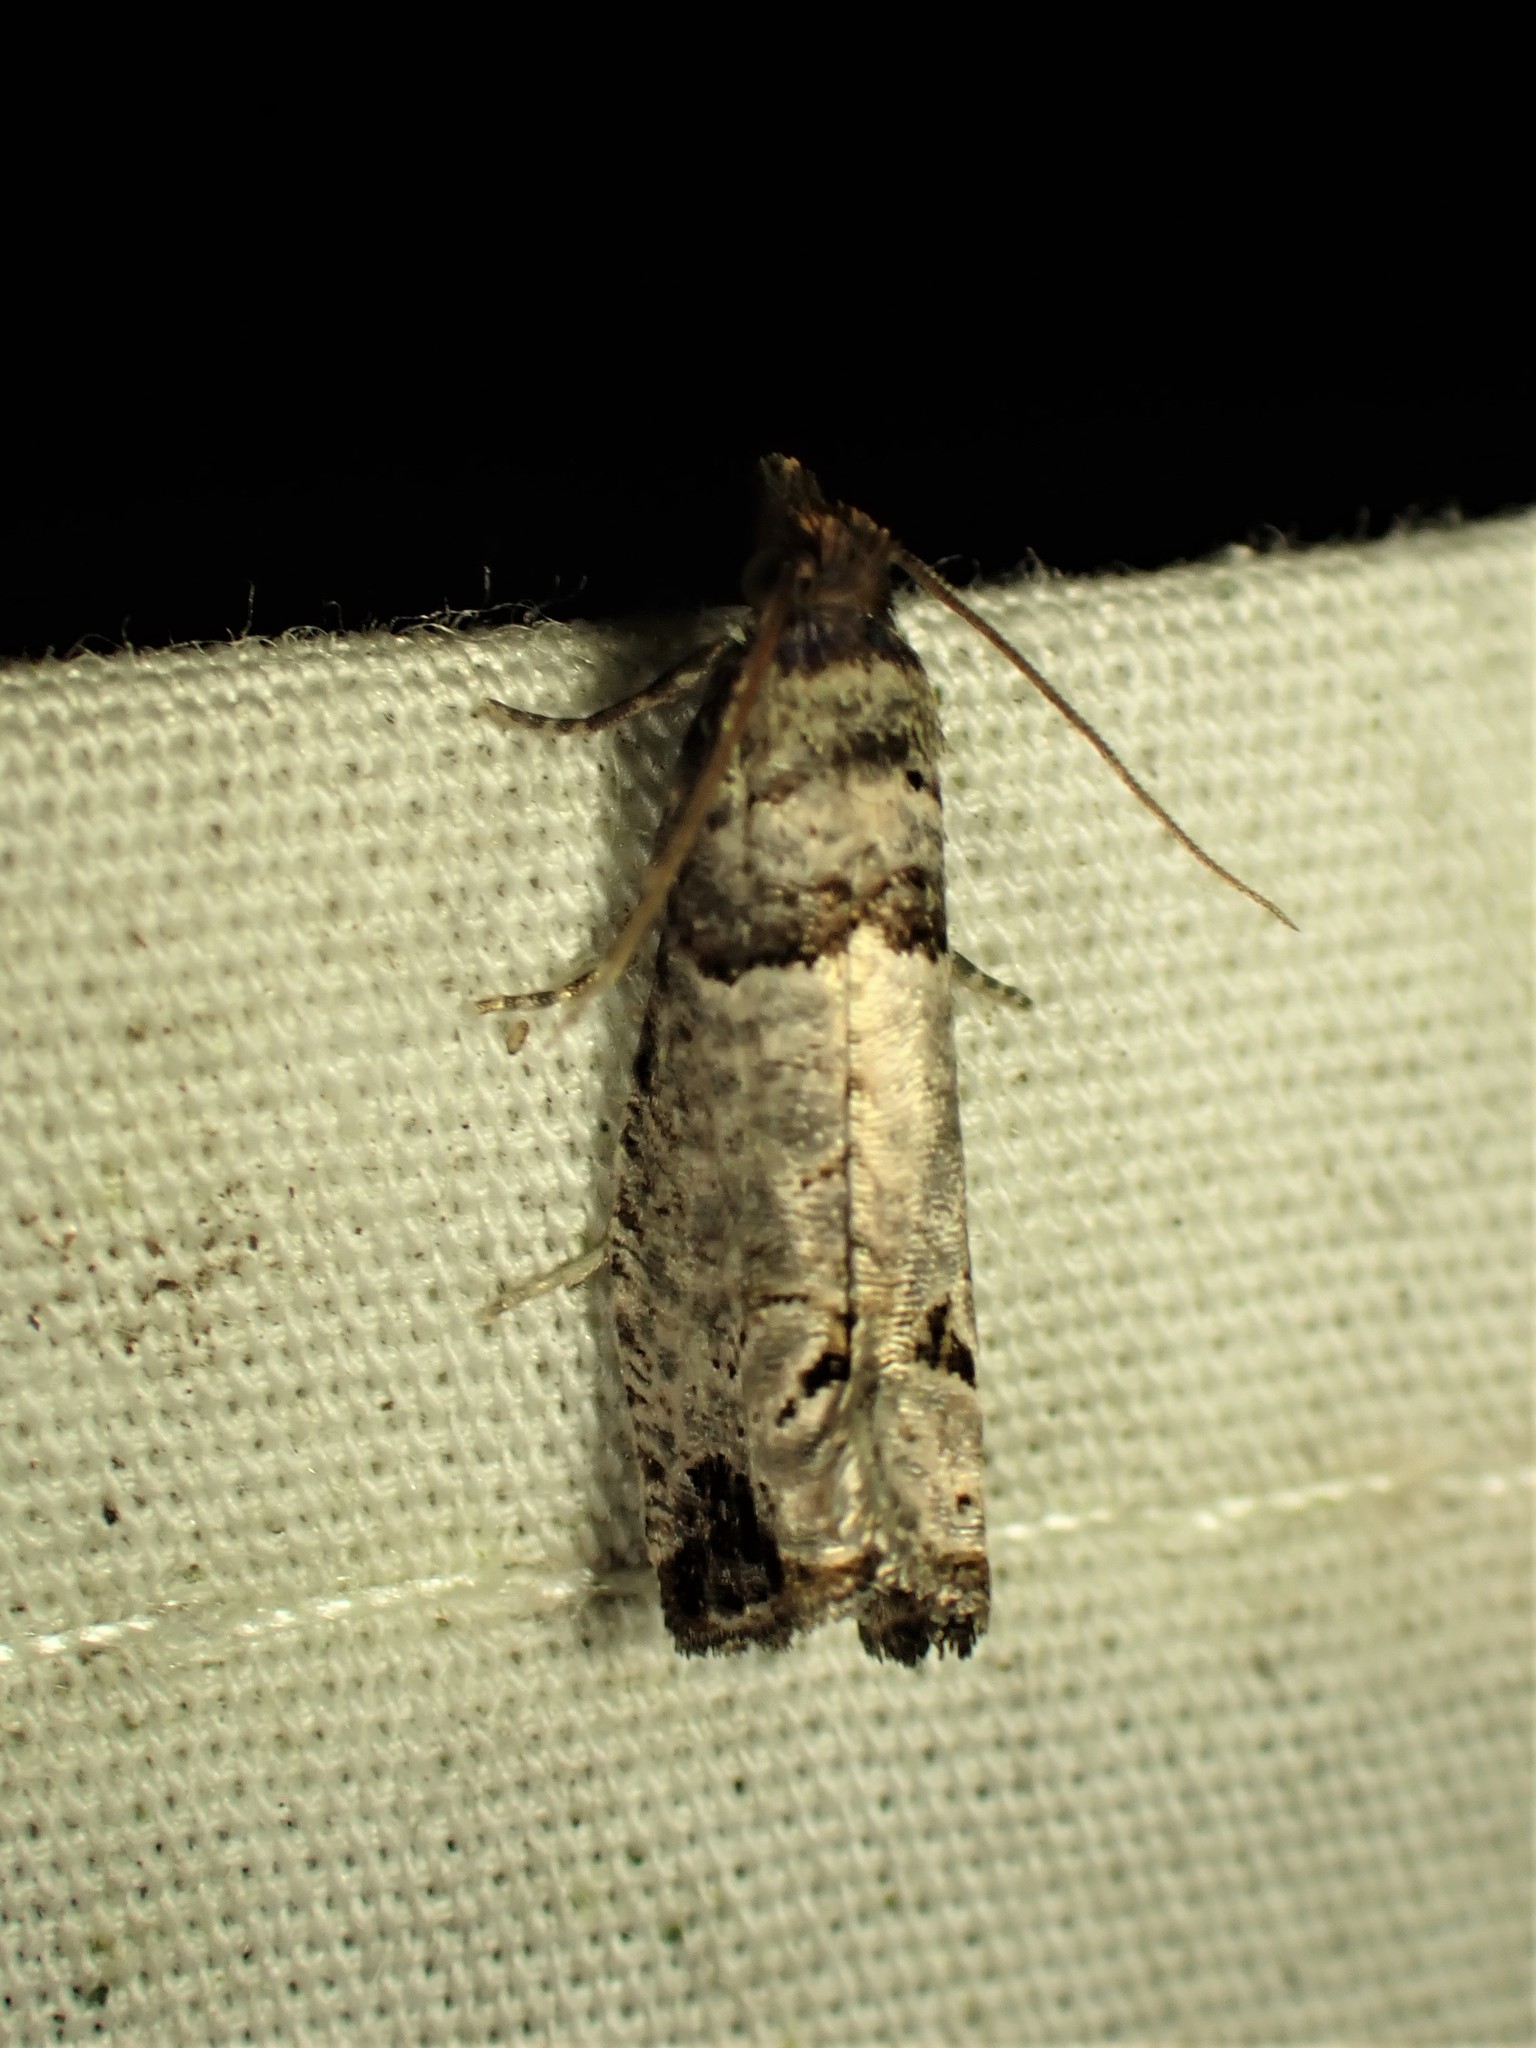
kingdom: Animalia
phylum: Arthropoda
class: Insecta
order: Lepidoptera
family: Tortricidae
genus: Notocelia
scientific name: Notocelia culminana
